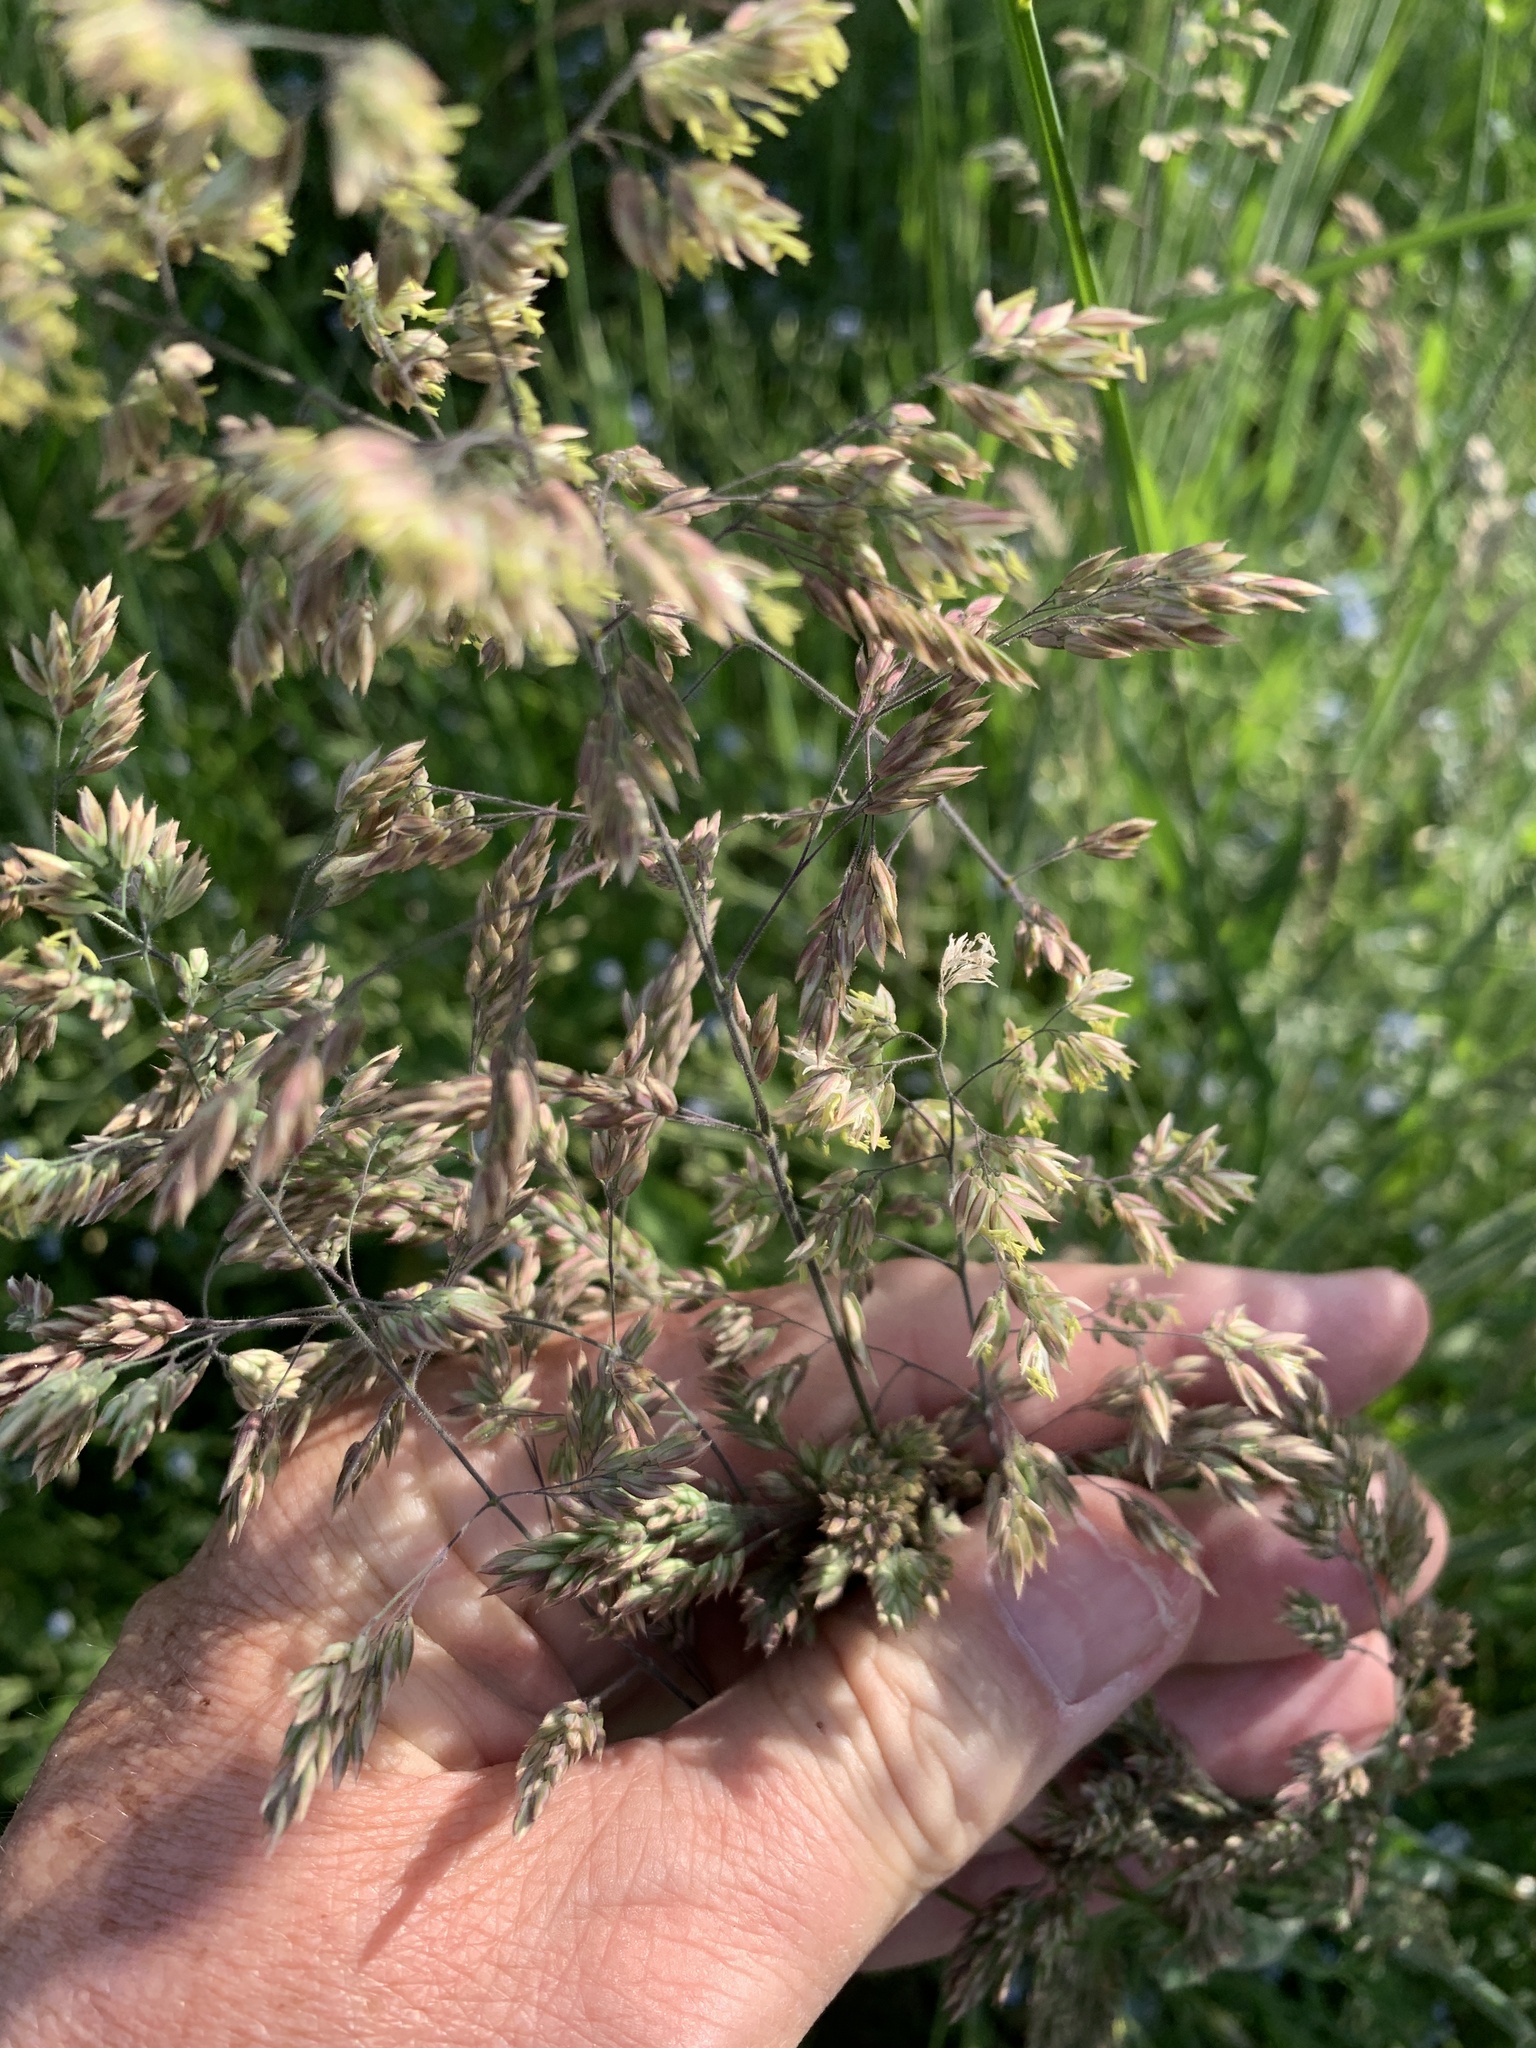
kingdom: Plantae
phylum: Tracheophyta
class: Liliopsida
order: Poales
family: Poaceae
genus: Holcus
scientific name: Holcus lanatus
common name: Yorkshire-fog
